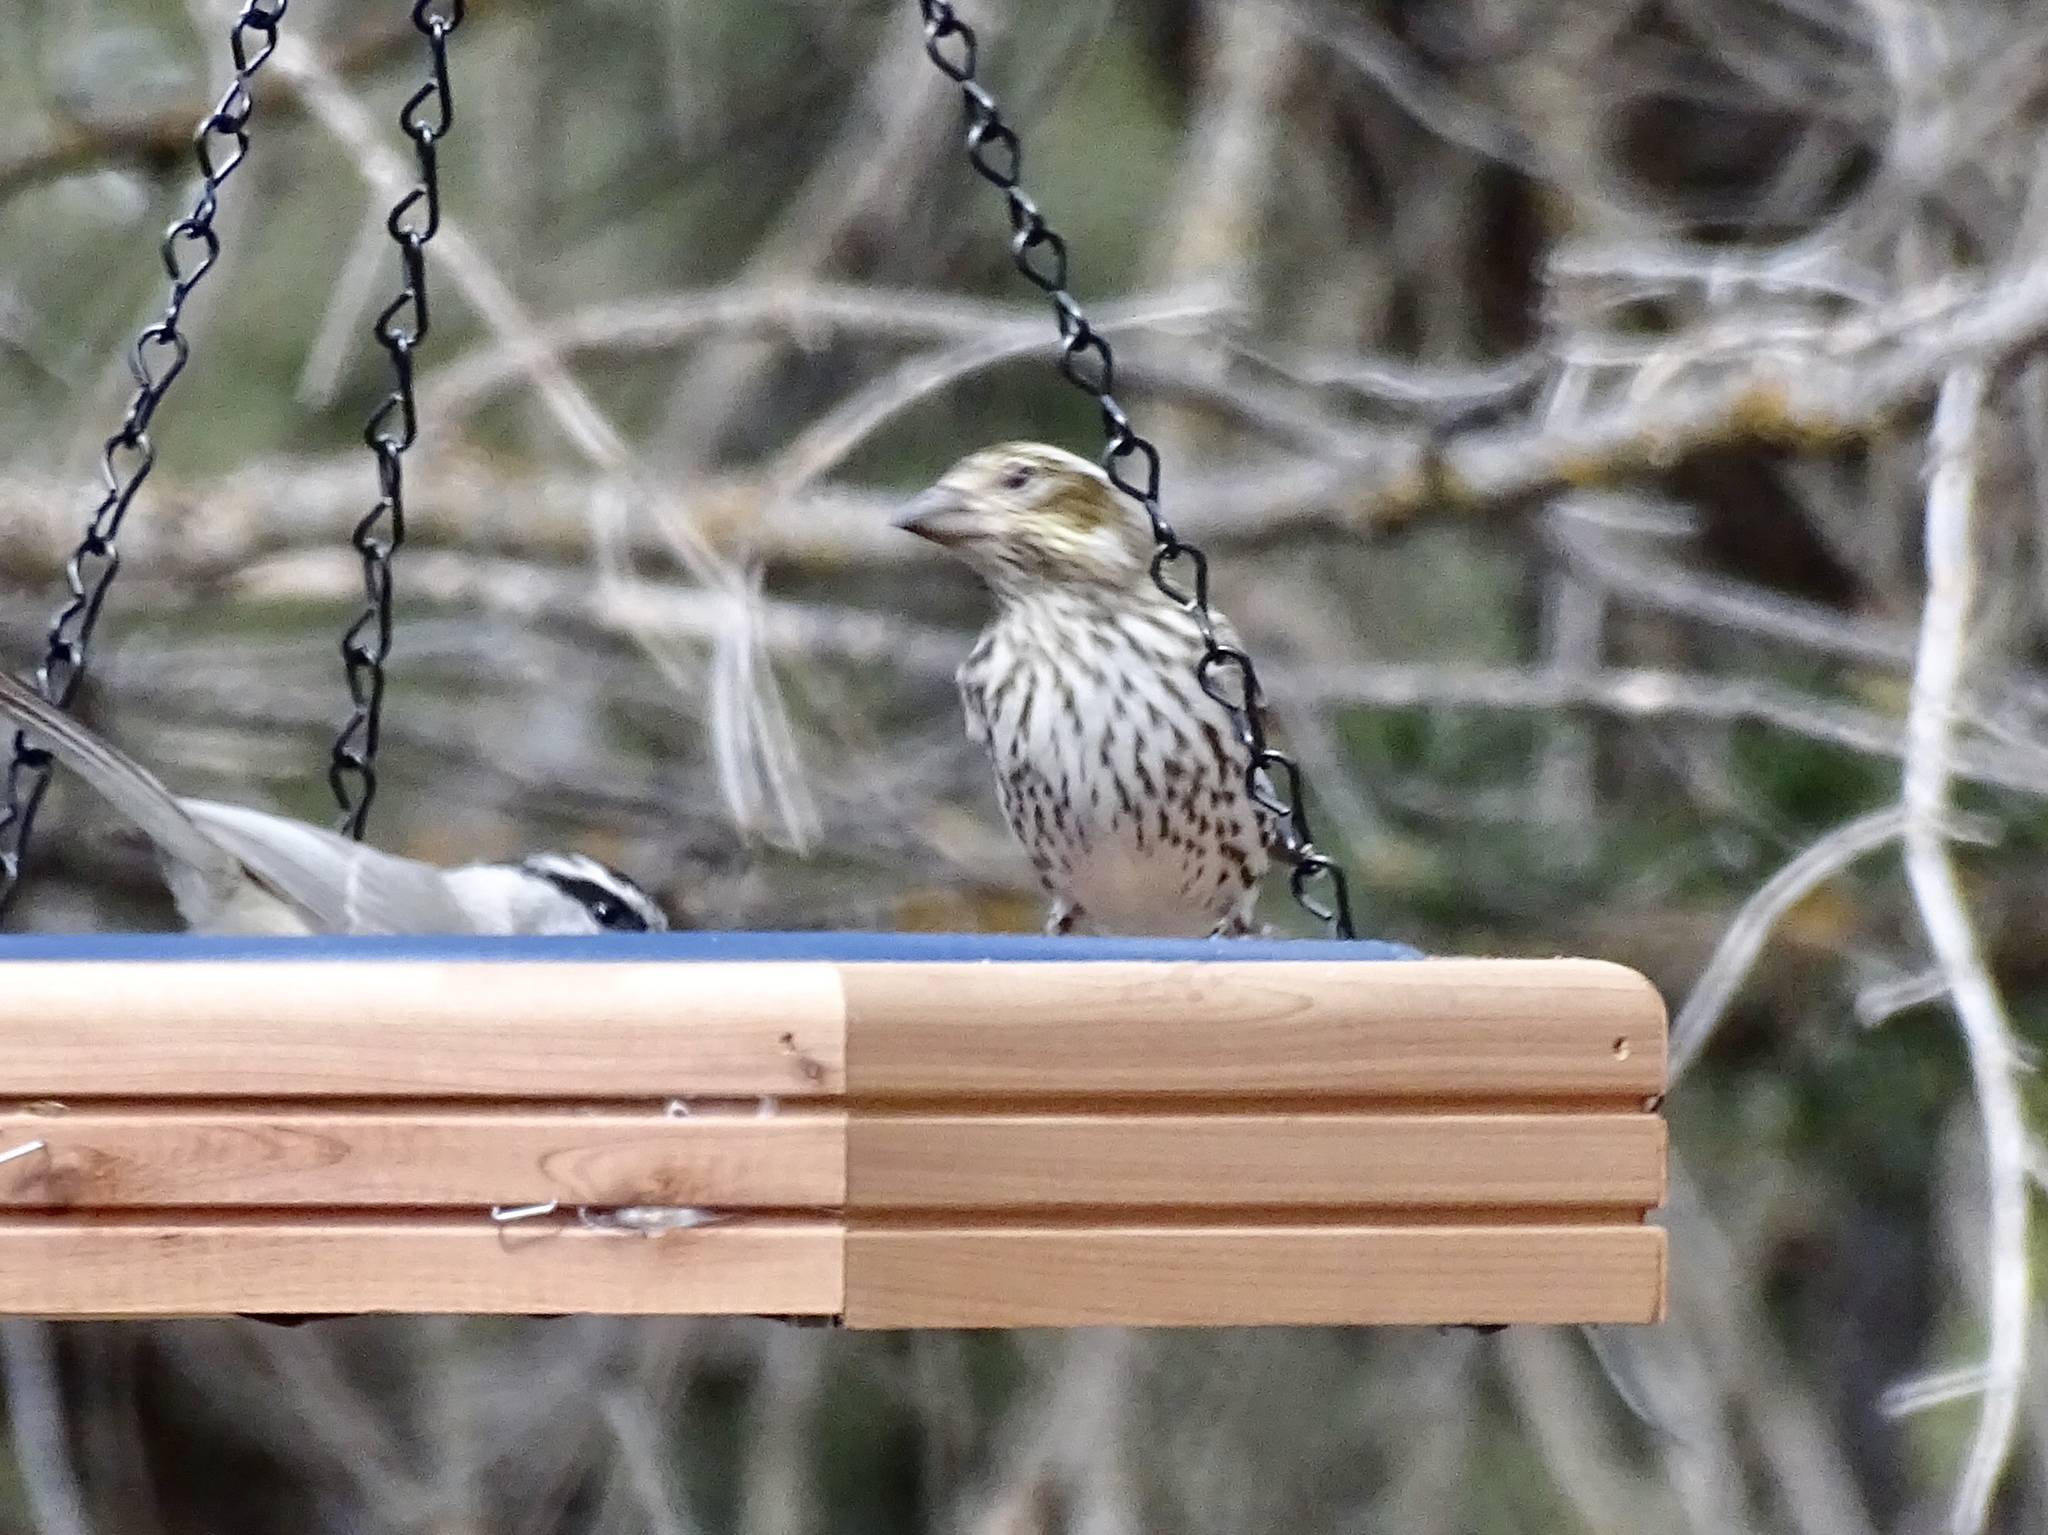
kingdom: Animalia
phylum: Chordata
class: Aves
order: Passeriformes
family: Fringillidae
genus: Haemorhous
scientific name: Haemorhous cassinii
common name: Cassin's finch
